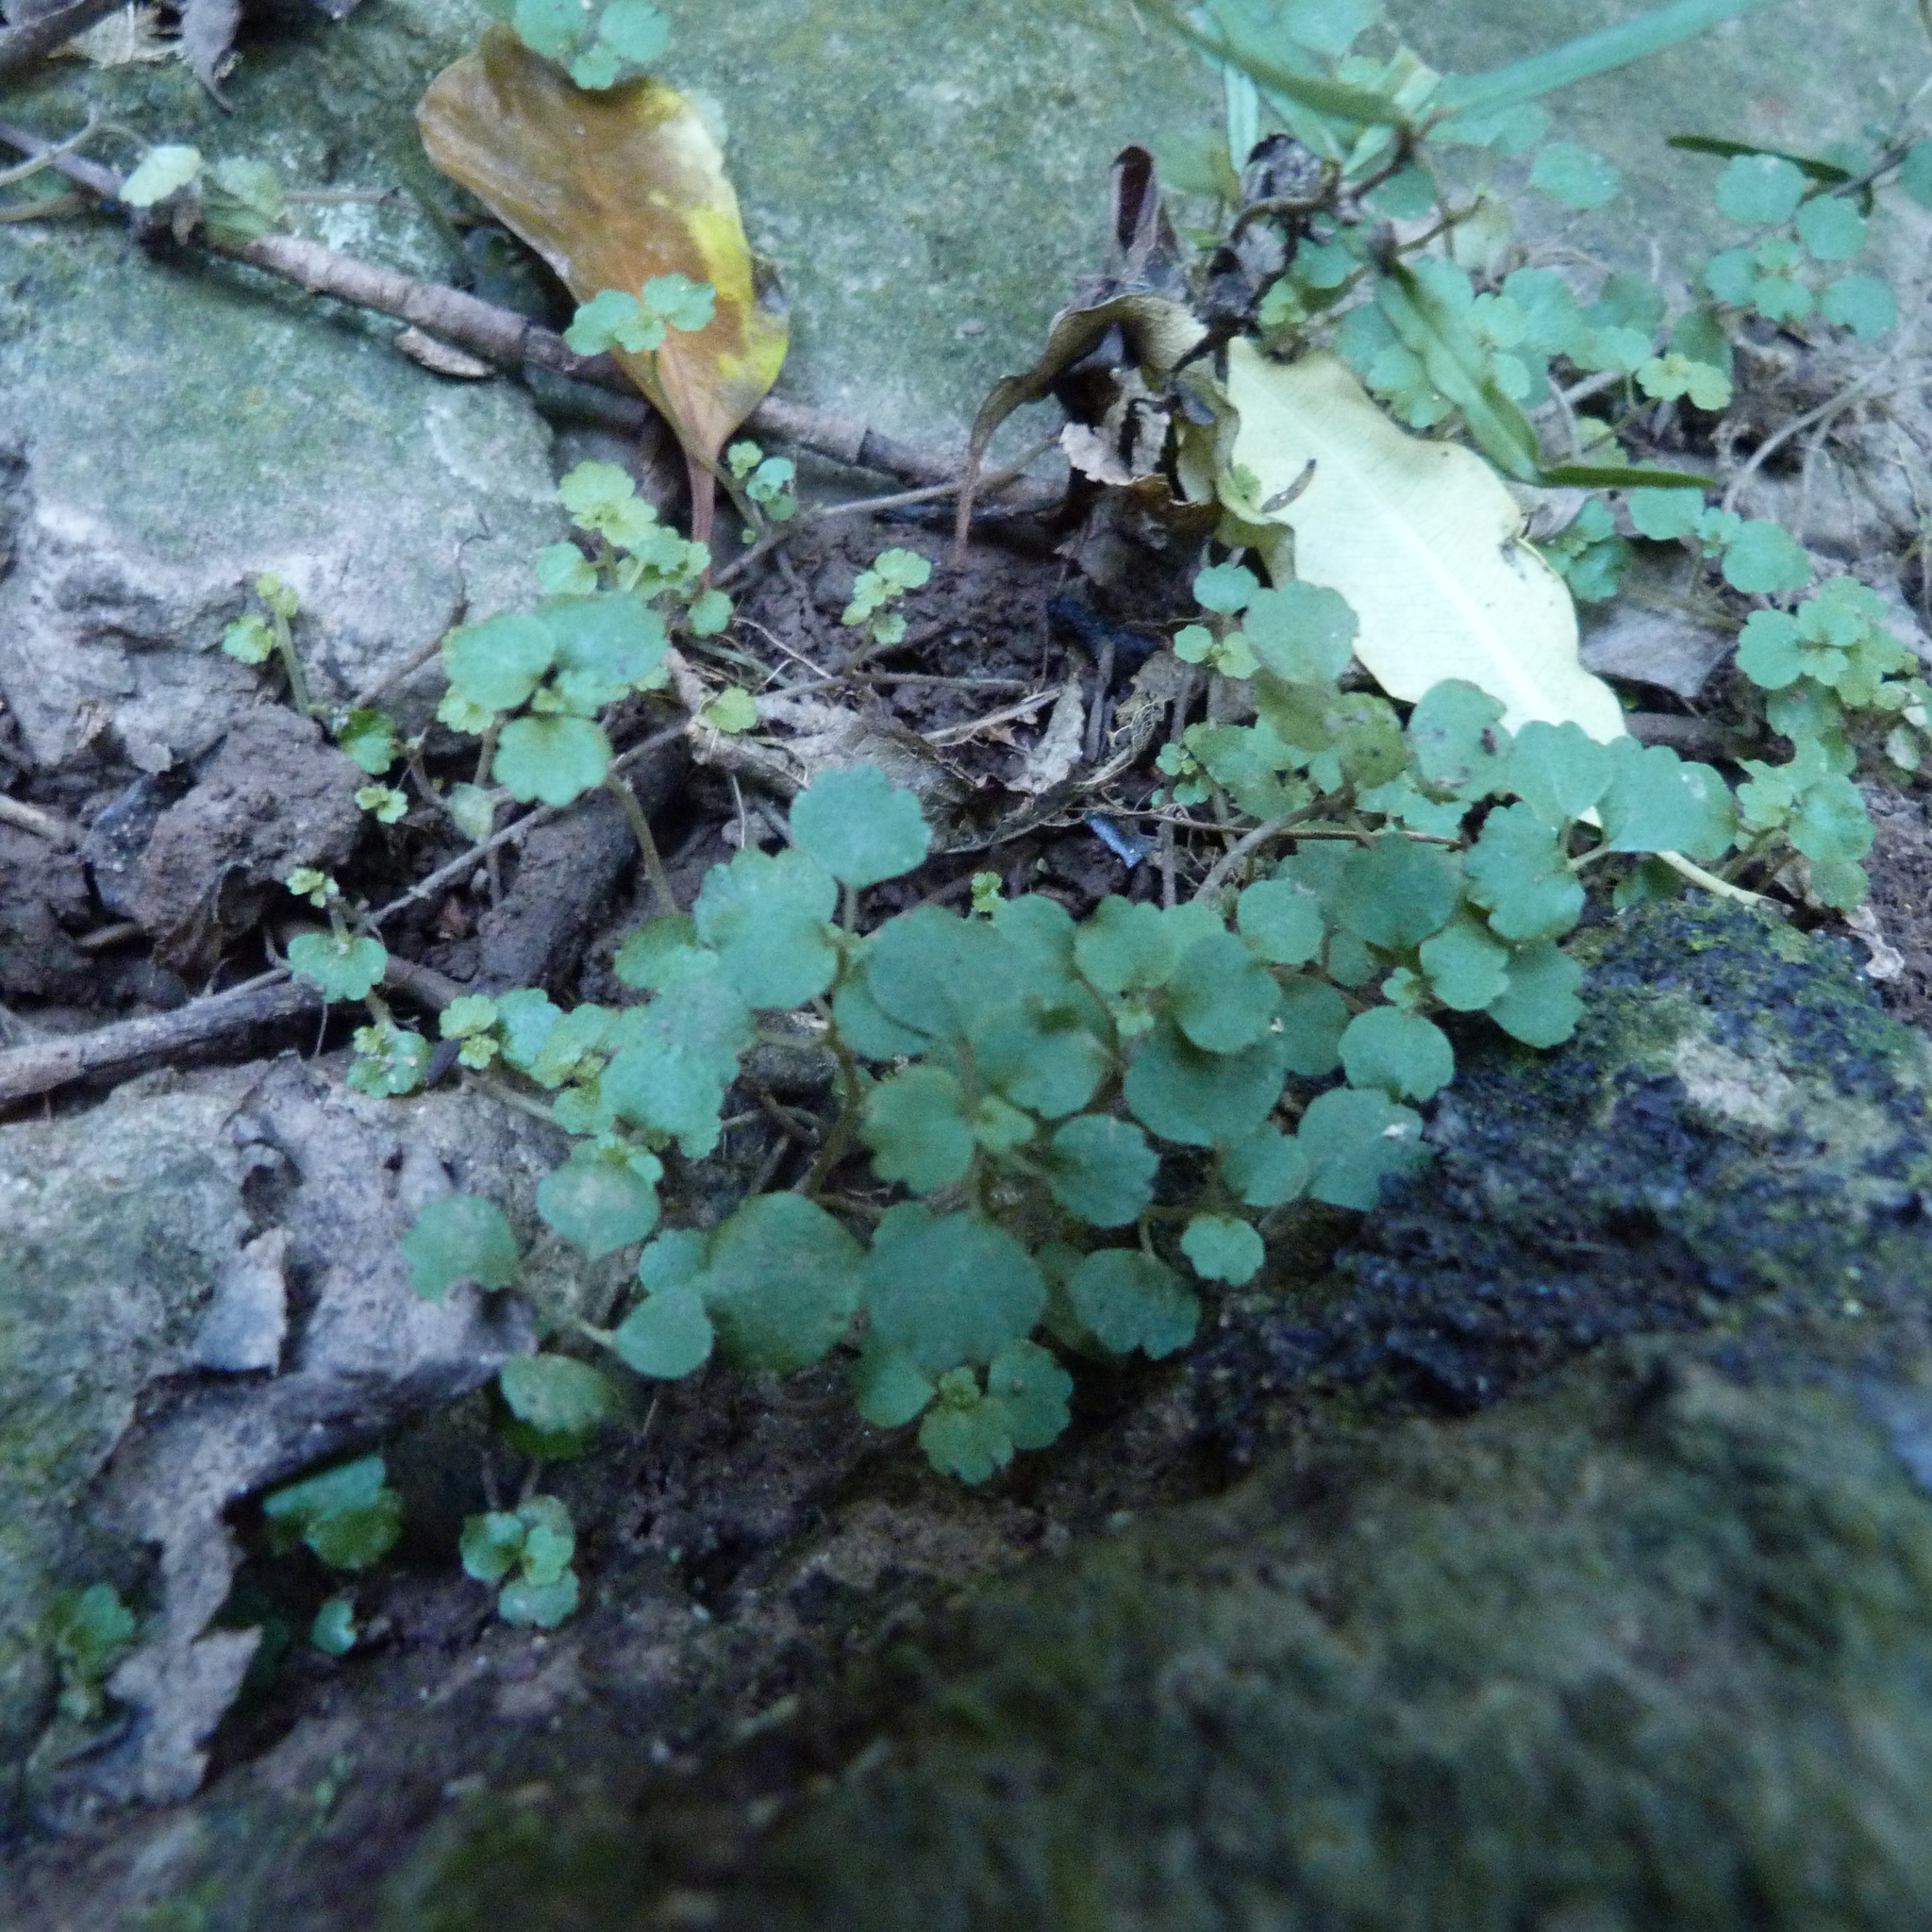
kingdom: Plantae
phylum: Tracheophyta
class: Magnoliopsida
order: Rosales
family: Urticaceae
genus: Australina
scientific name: Australina pusilla
